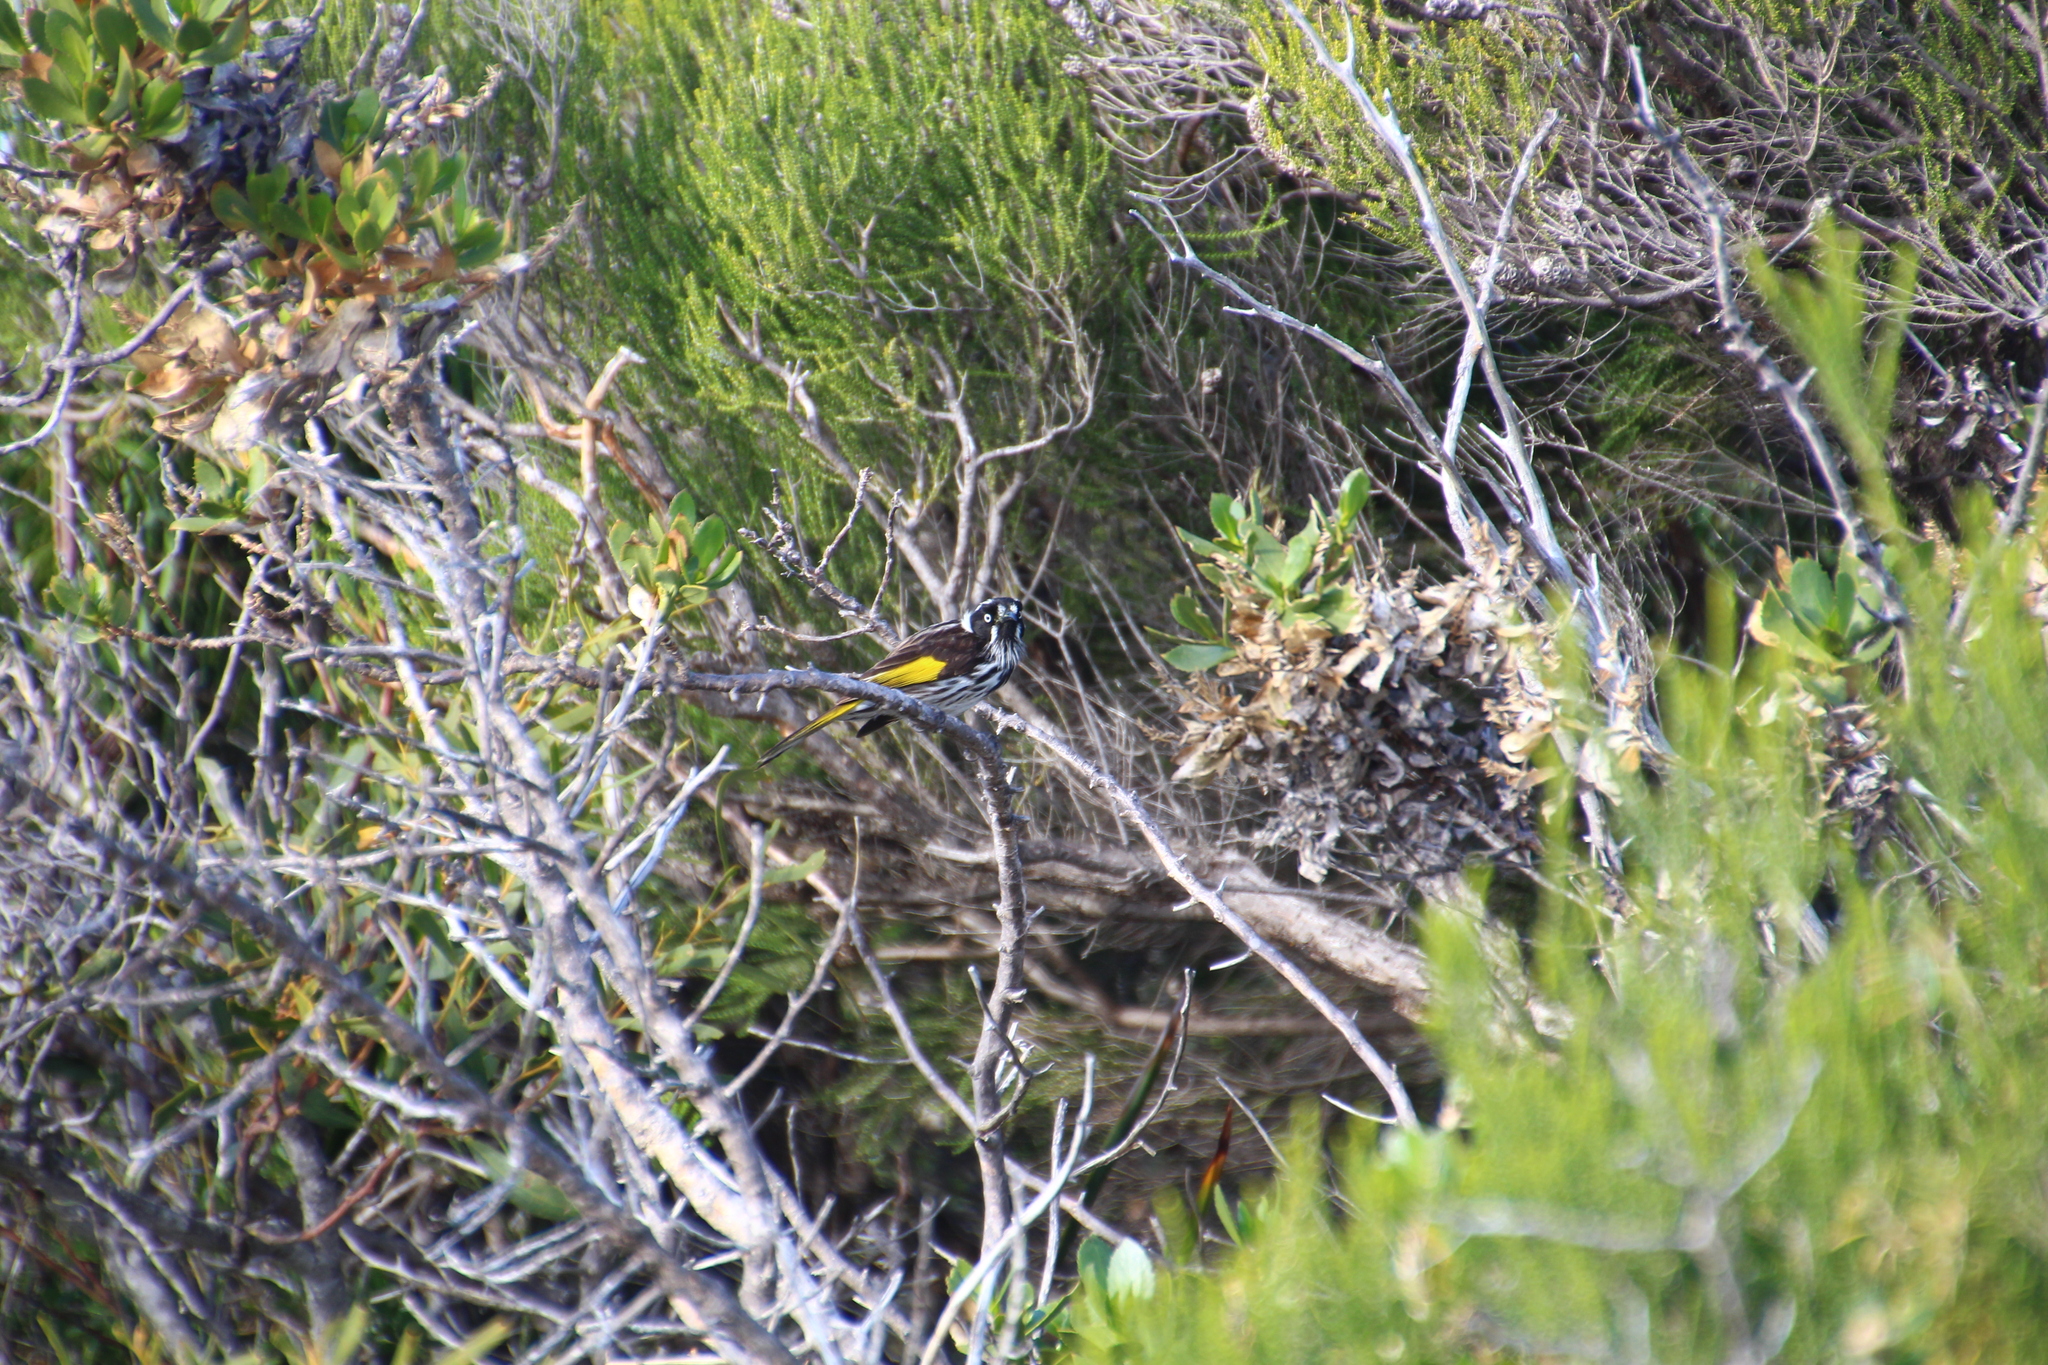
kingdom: Animalia
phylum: Chordata
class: Aves
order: Passeriformes
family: Meliphagidae
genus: Phylidonyris
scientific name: Phylidonyris novaehollandiae
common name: New holland honeyeater
